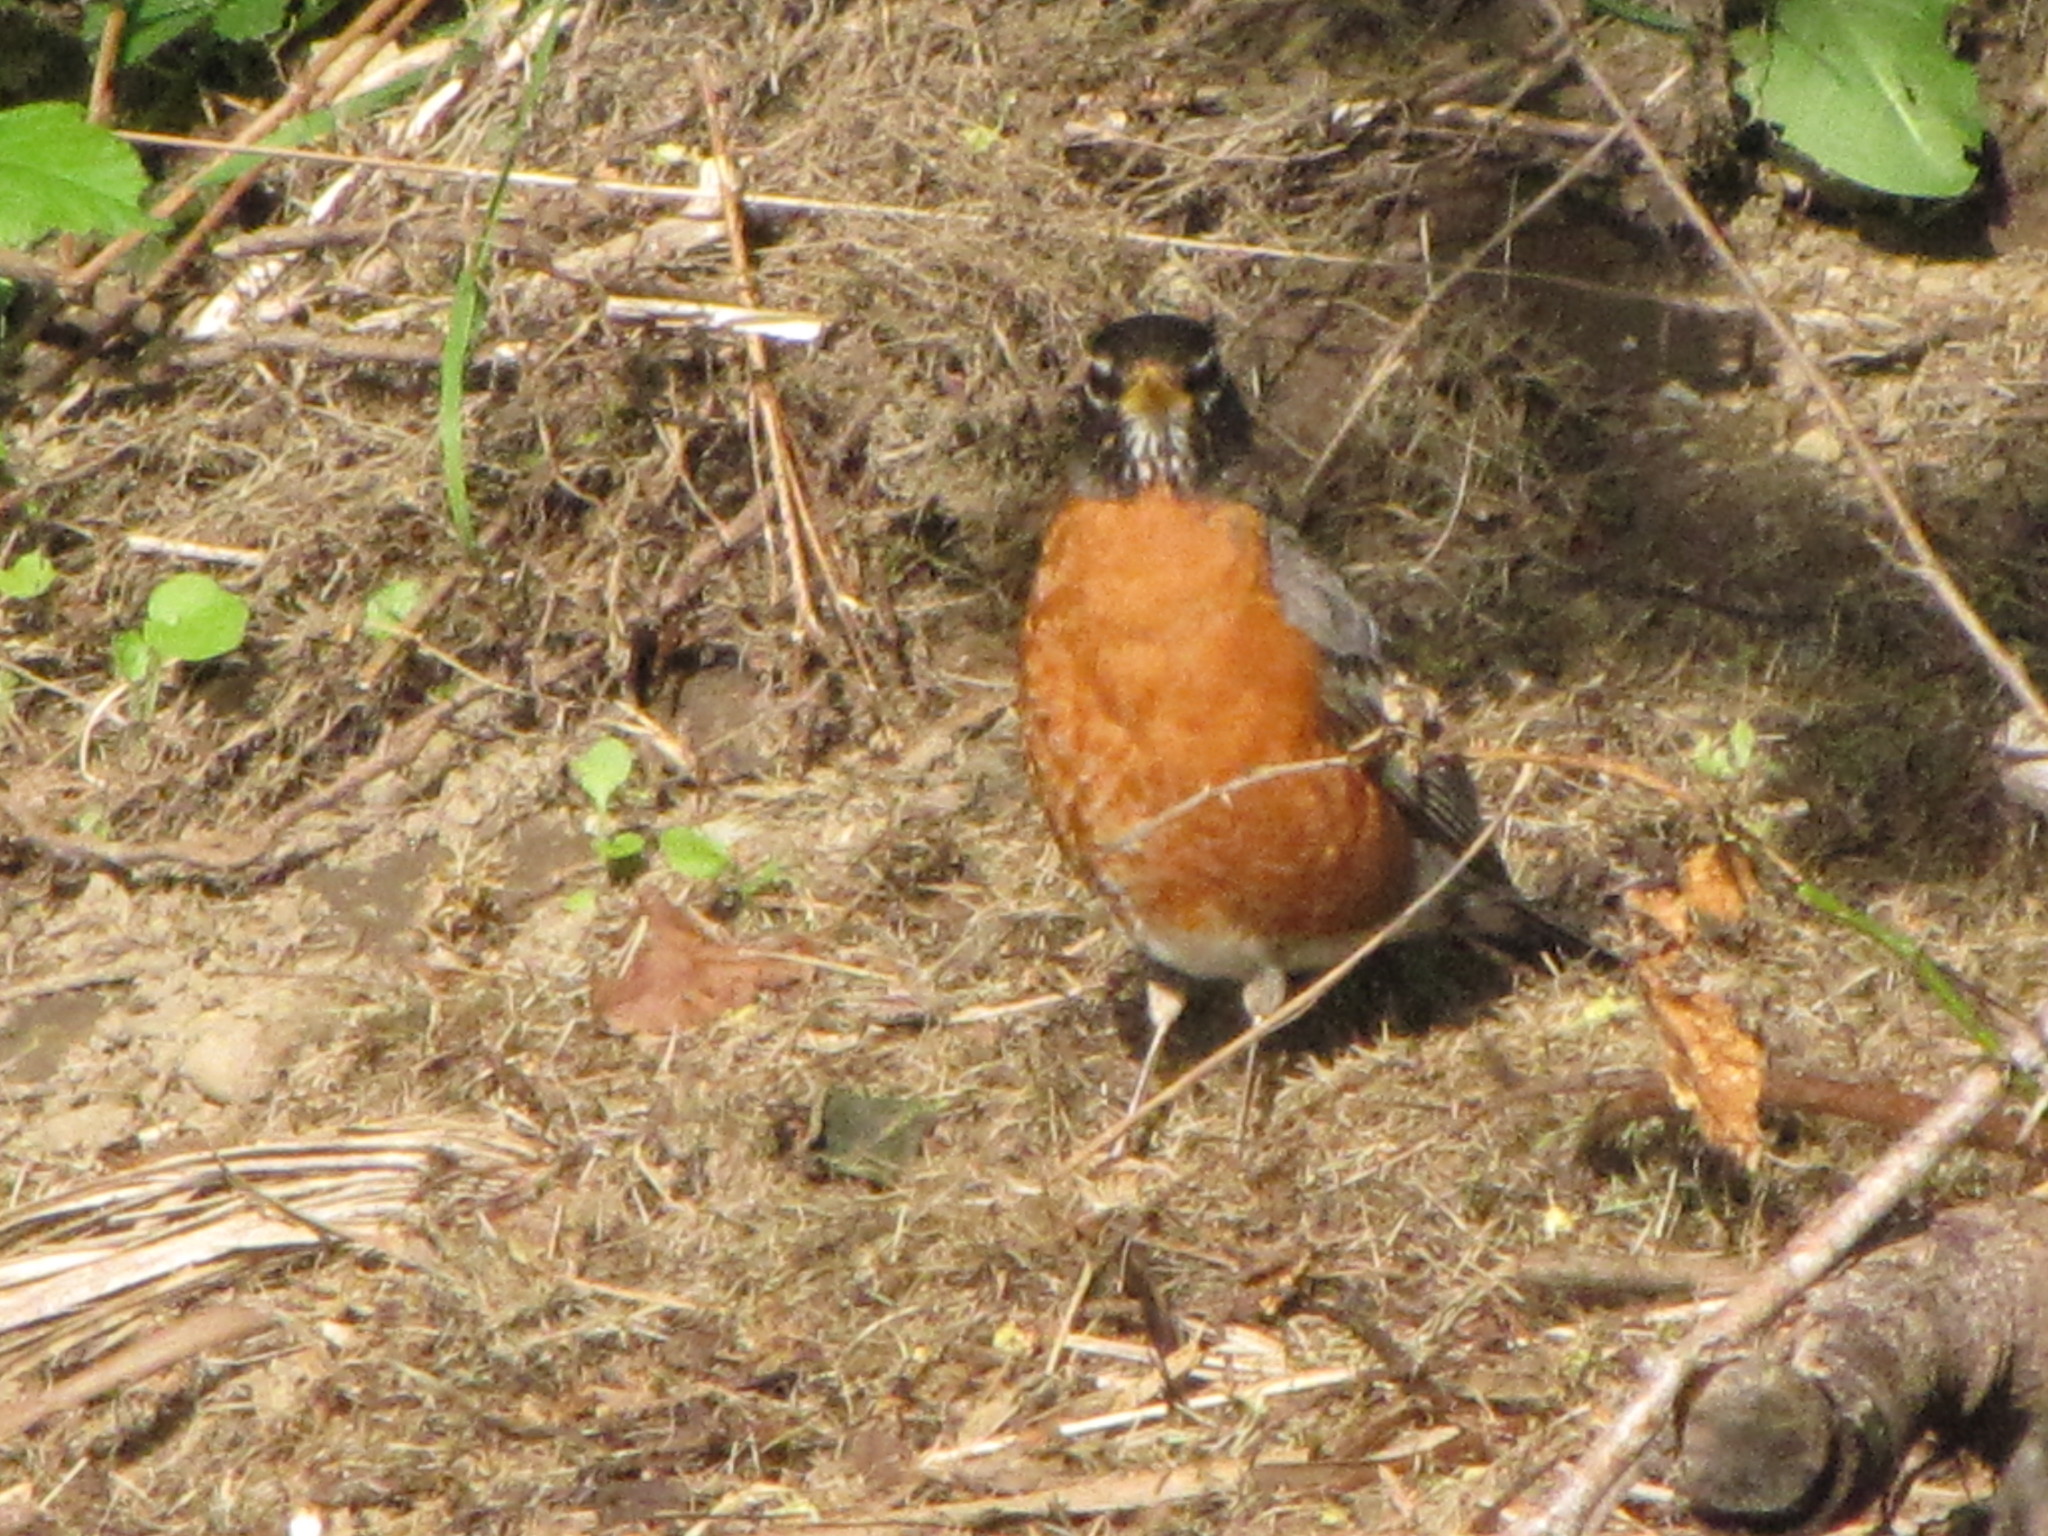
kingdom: Animalia
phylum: Chordata
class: Aves
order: Passeriformes
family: Turdidae
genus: Turdus
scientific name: Turdus migratorius
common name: American robin
